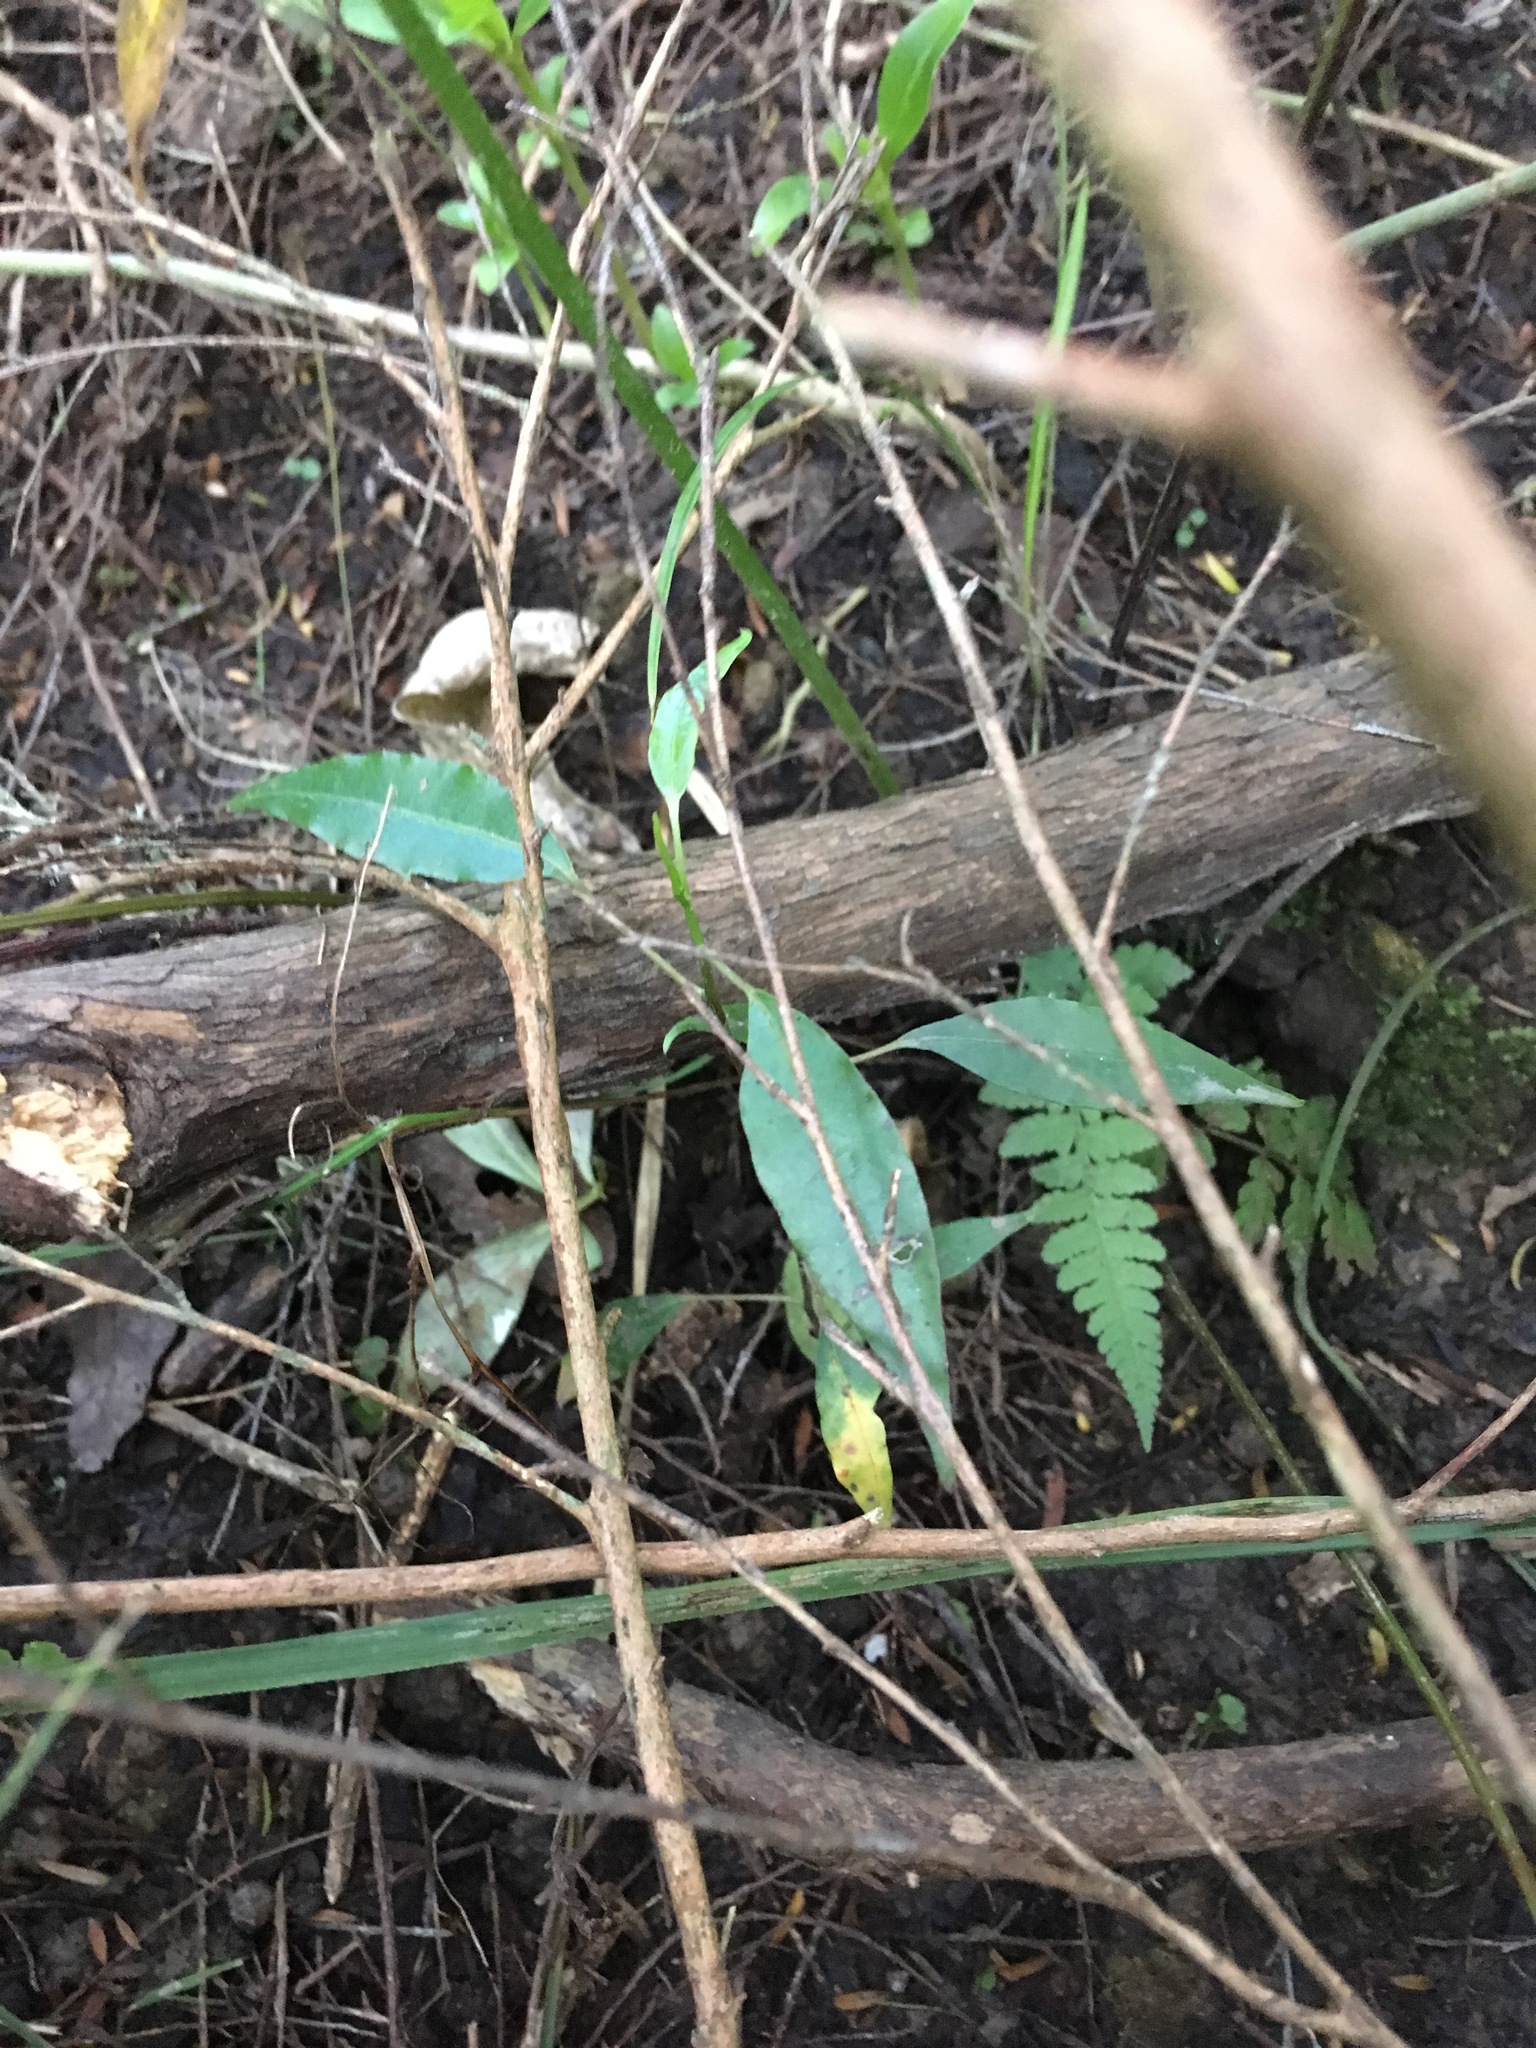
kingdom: Plantae
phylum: Tracheophyta
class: Magnoliopsida
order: Malpighiales
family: Passifloraceae
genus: Passiflora
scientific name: Passiflora tetrandra
